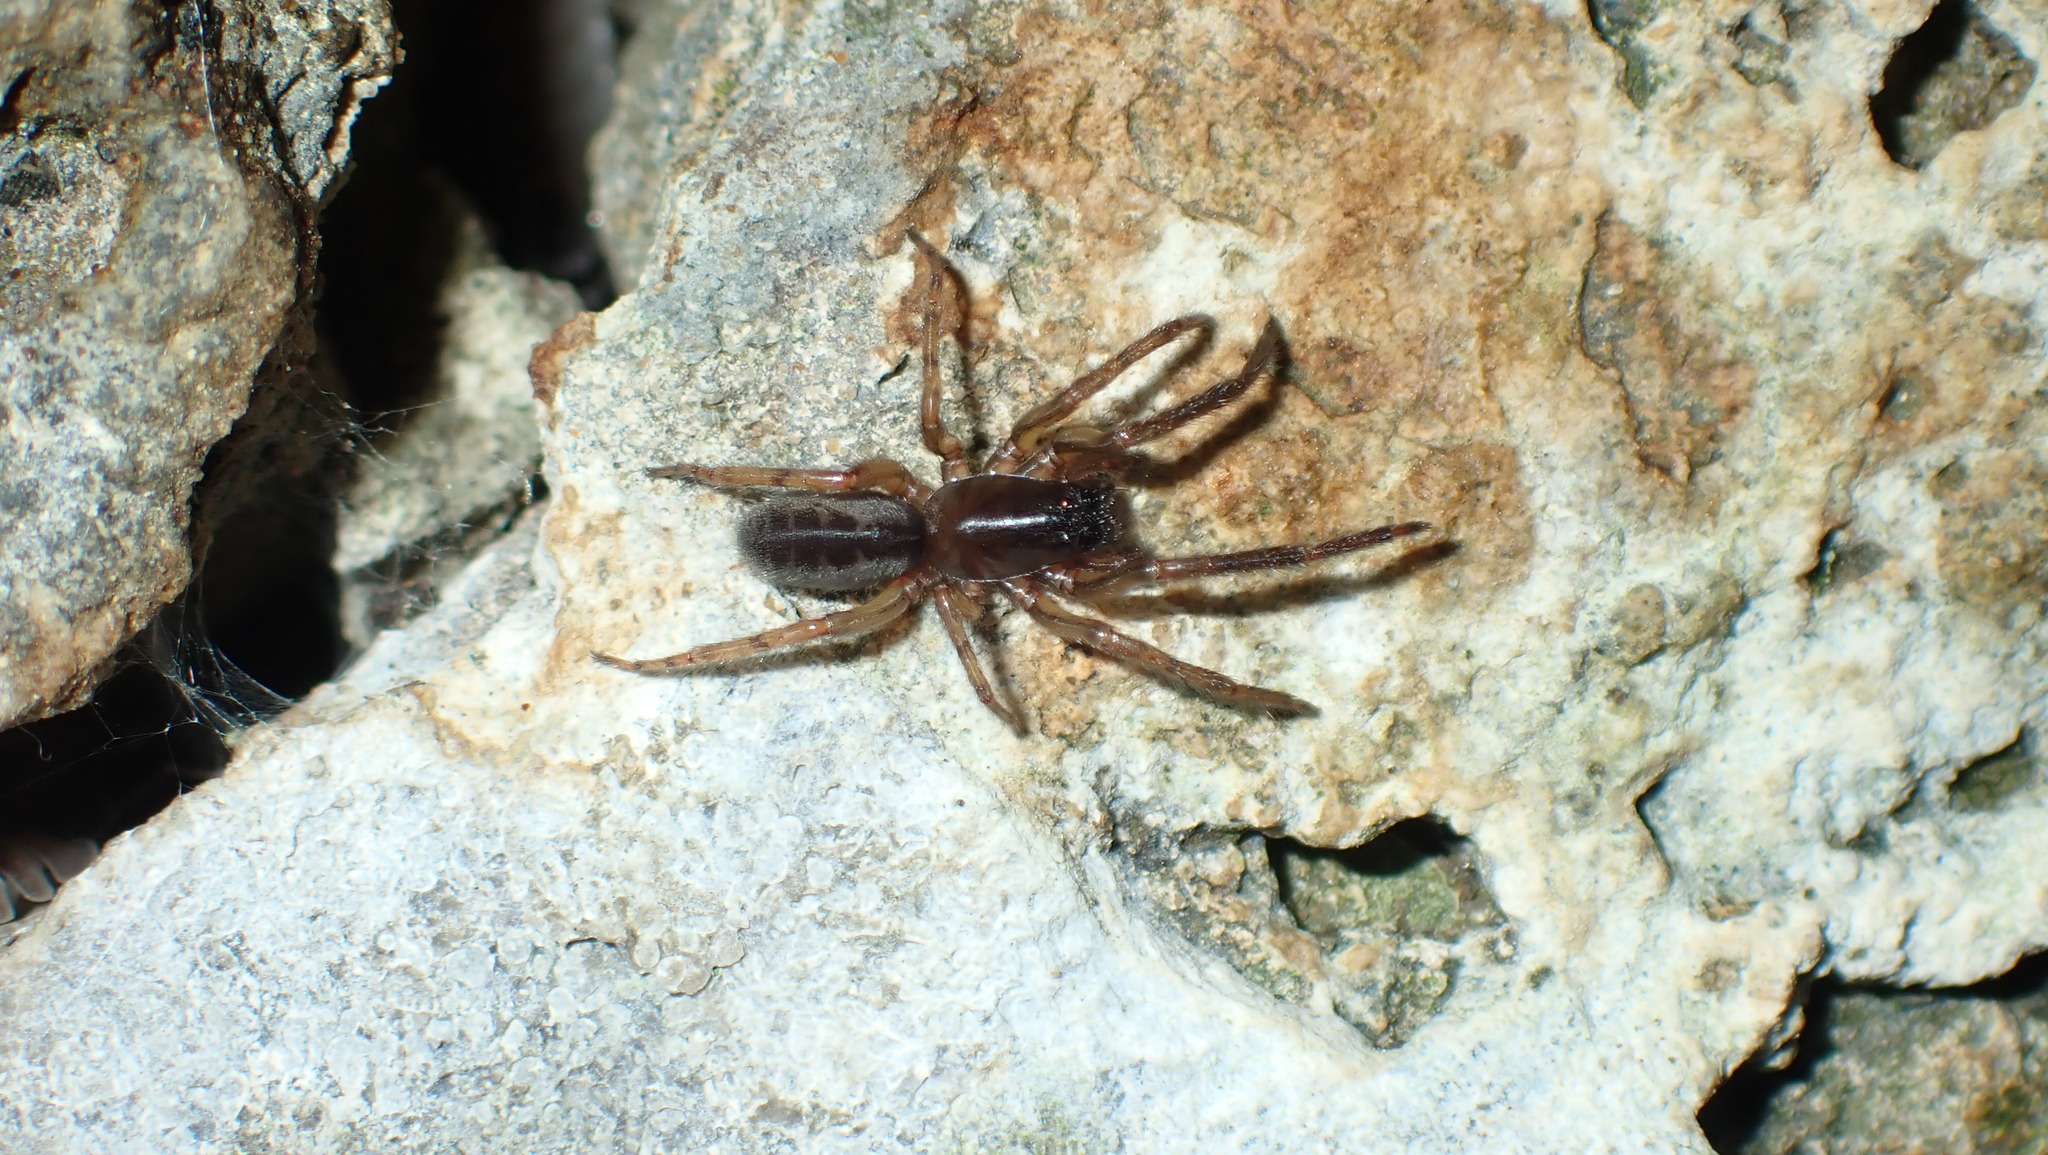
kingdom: Animalia
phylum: Arthropoda
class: Arachnida
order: Araneae
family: Segestriidae
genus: Segestria
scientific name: Segestria senoculata
